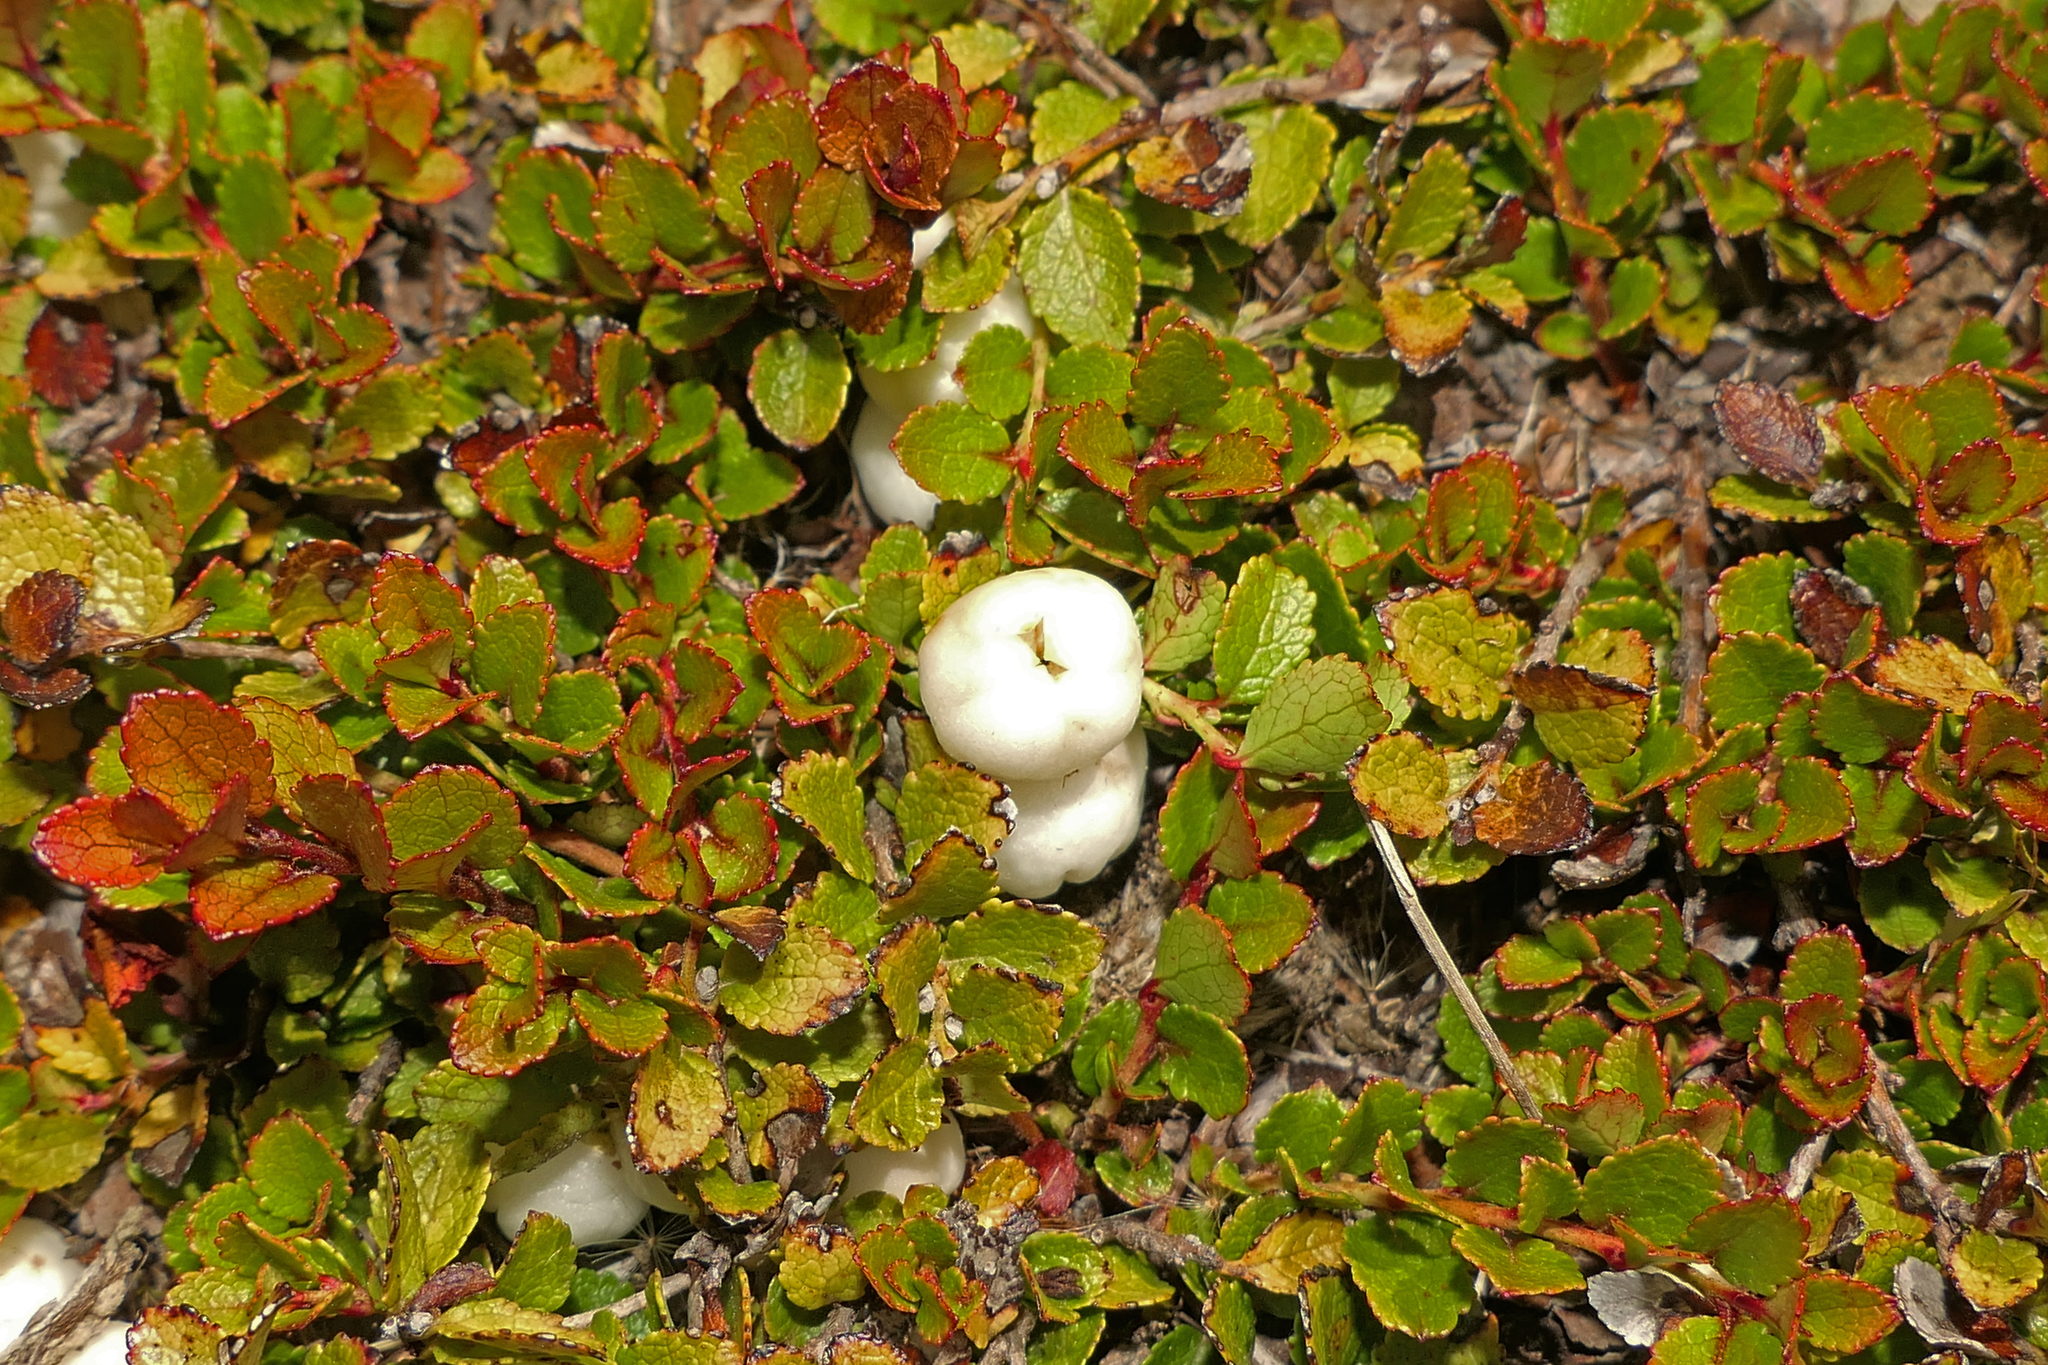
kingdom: Plantae
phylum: Tracheophyta
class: Magnoliopsida
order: Ericales
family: Ericaceae
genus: Gaultheria
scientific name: Gaultheria depressa
